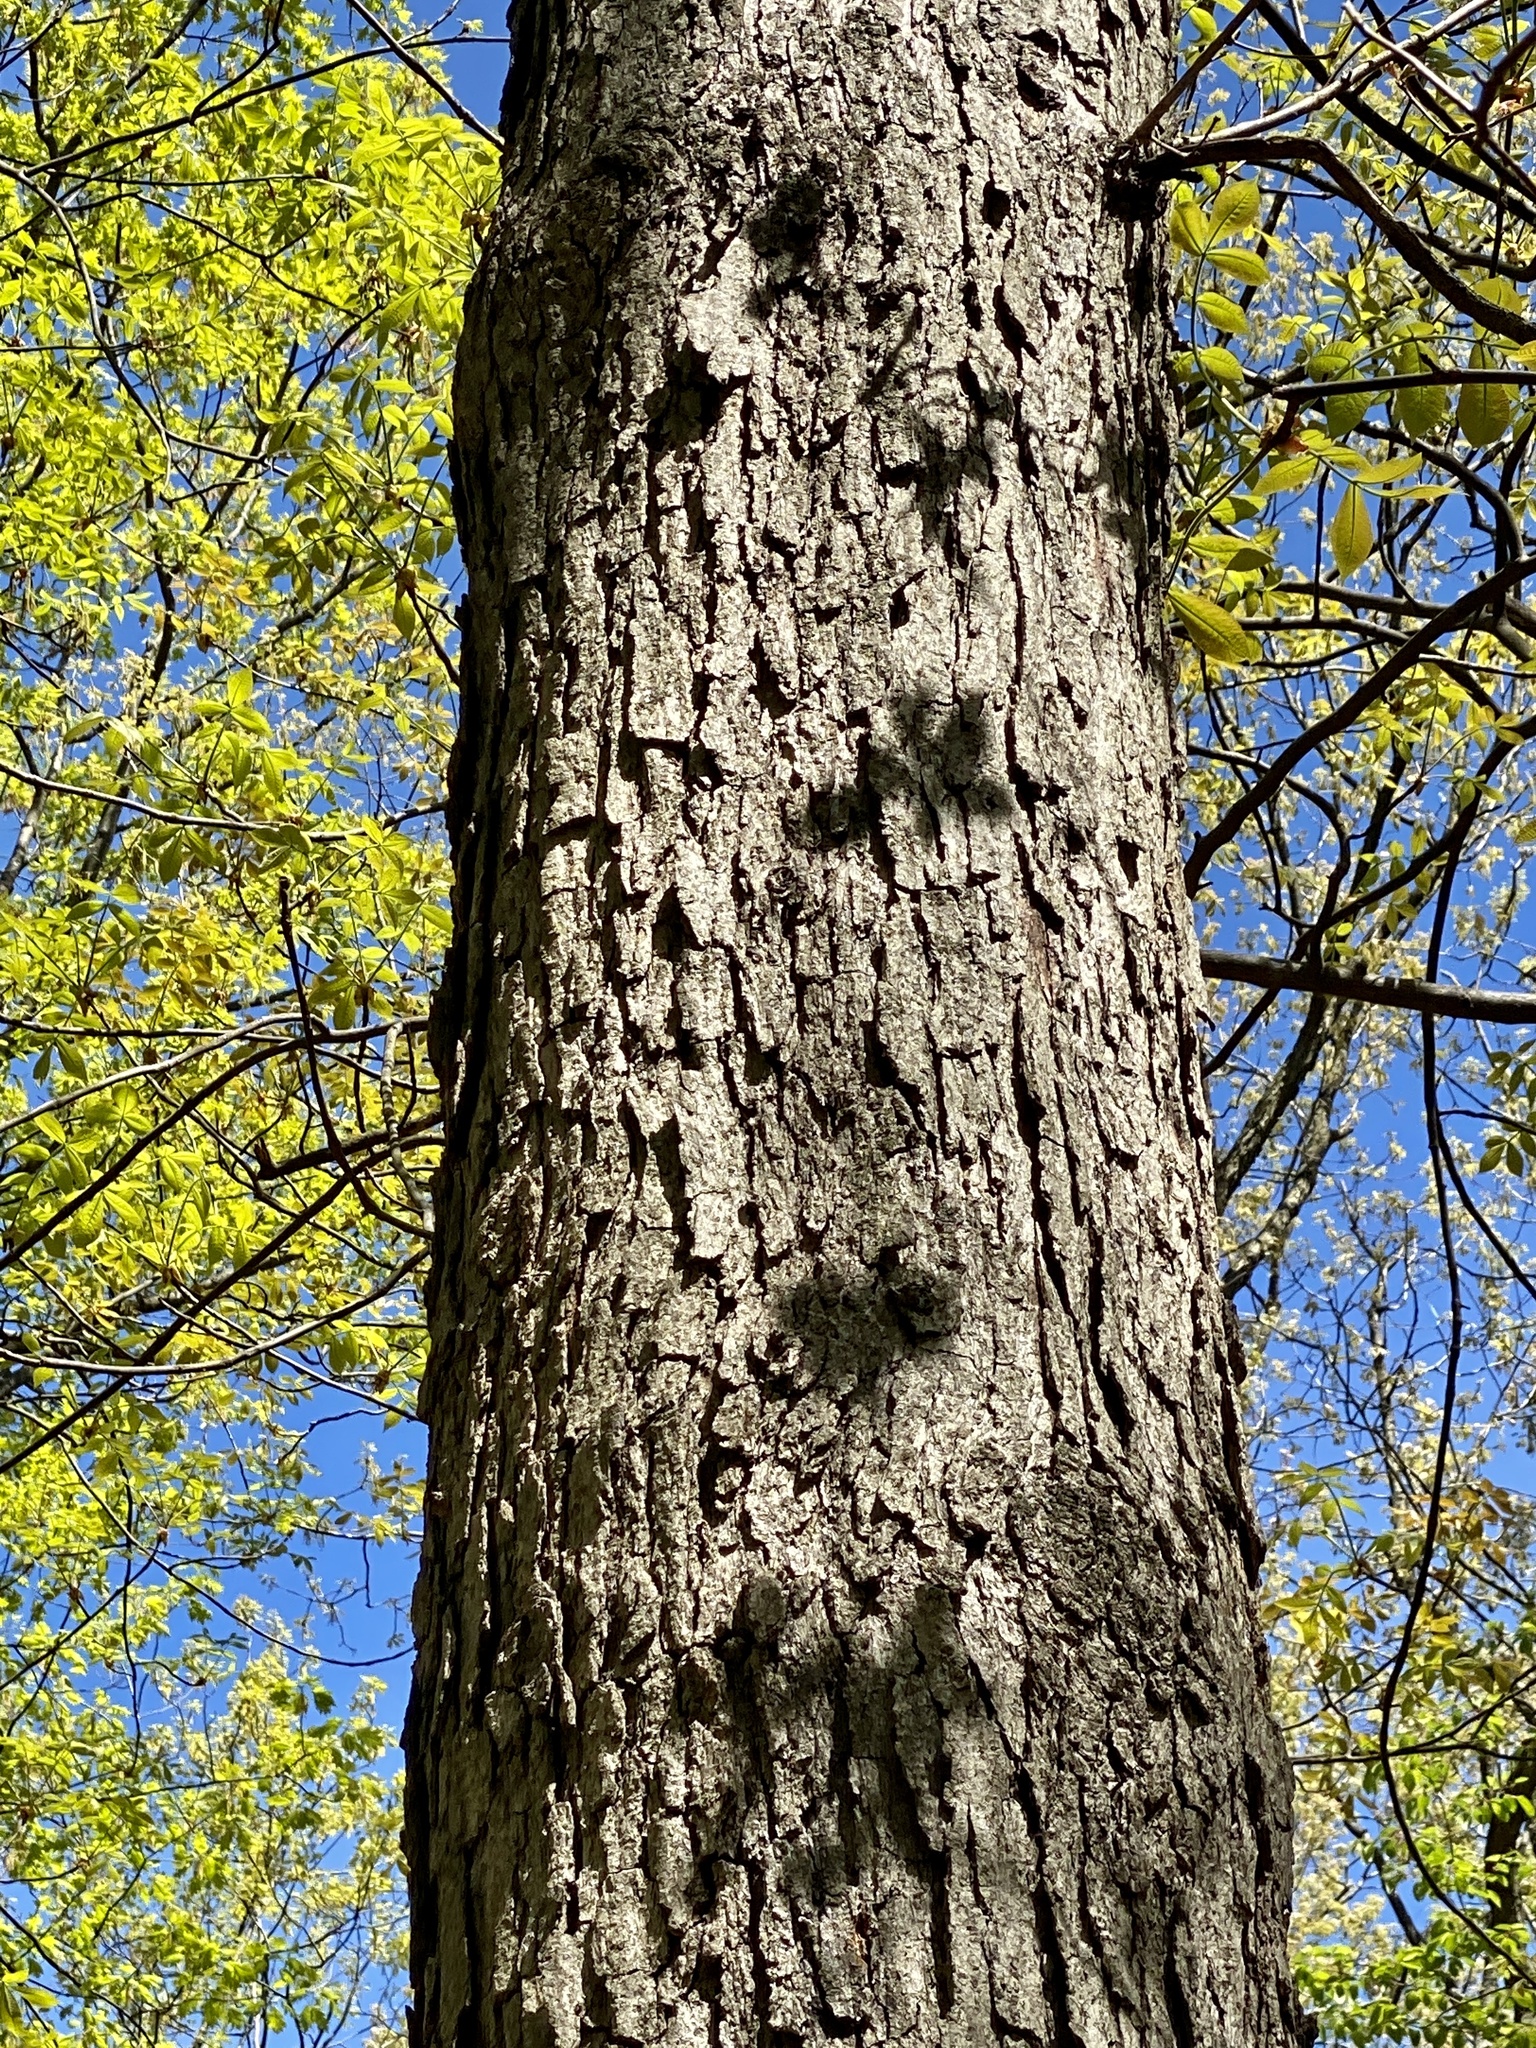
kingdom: Plantae
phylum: Tracheophyta
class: Magnoliopsida
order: Fagales
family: Fagaceae
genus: Quercus
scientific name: Quercus alba
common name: White oak
